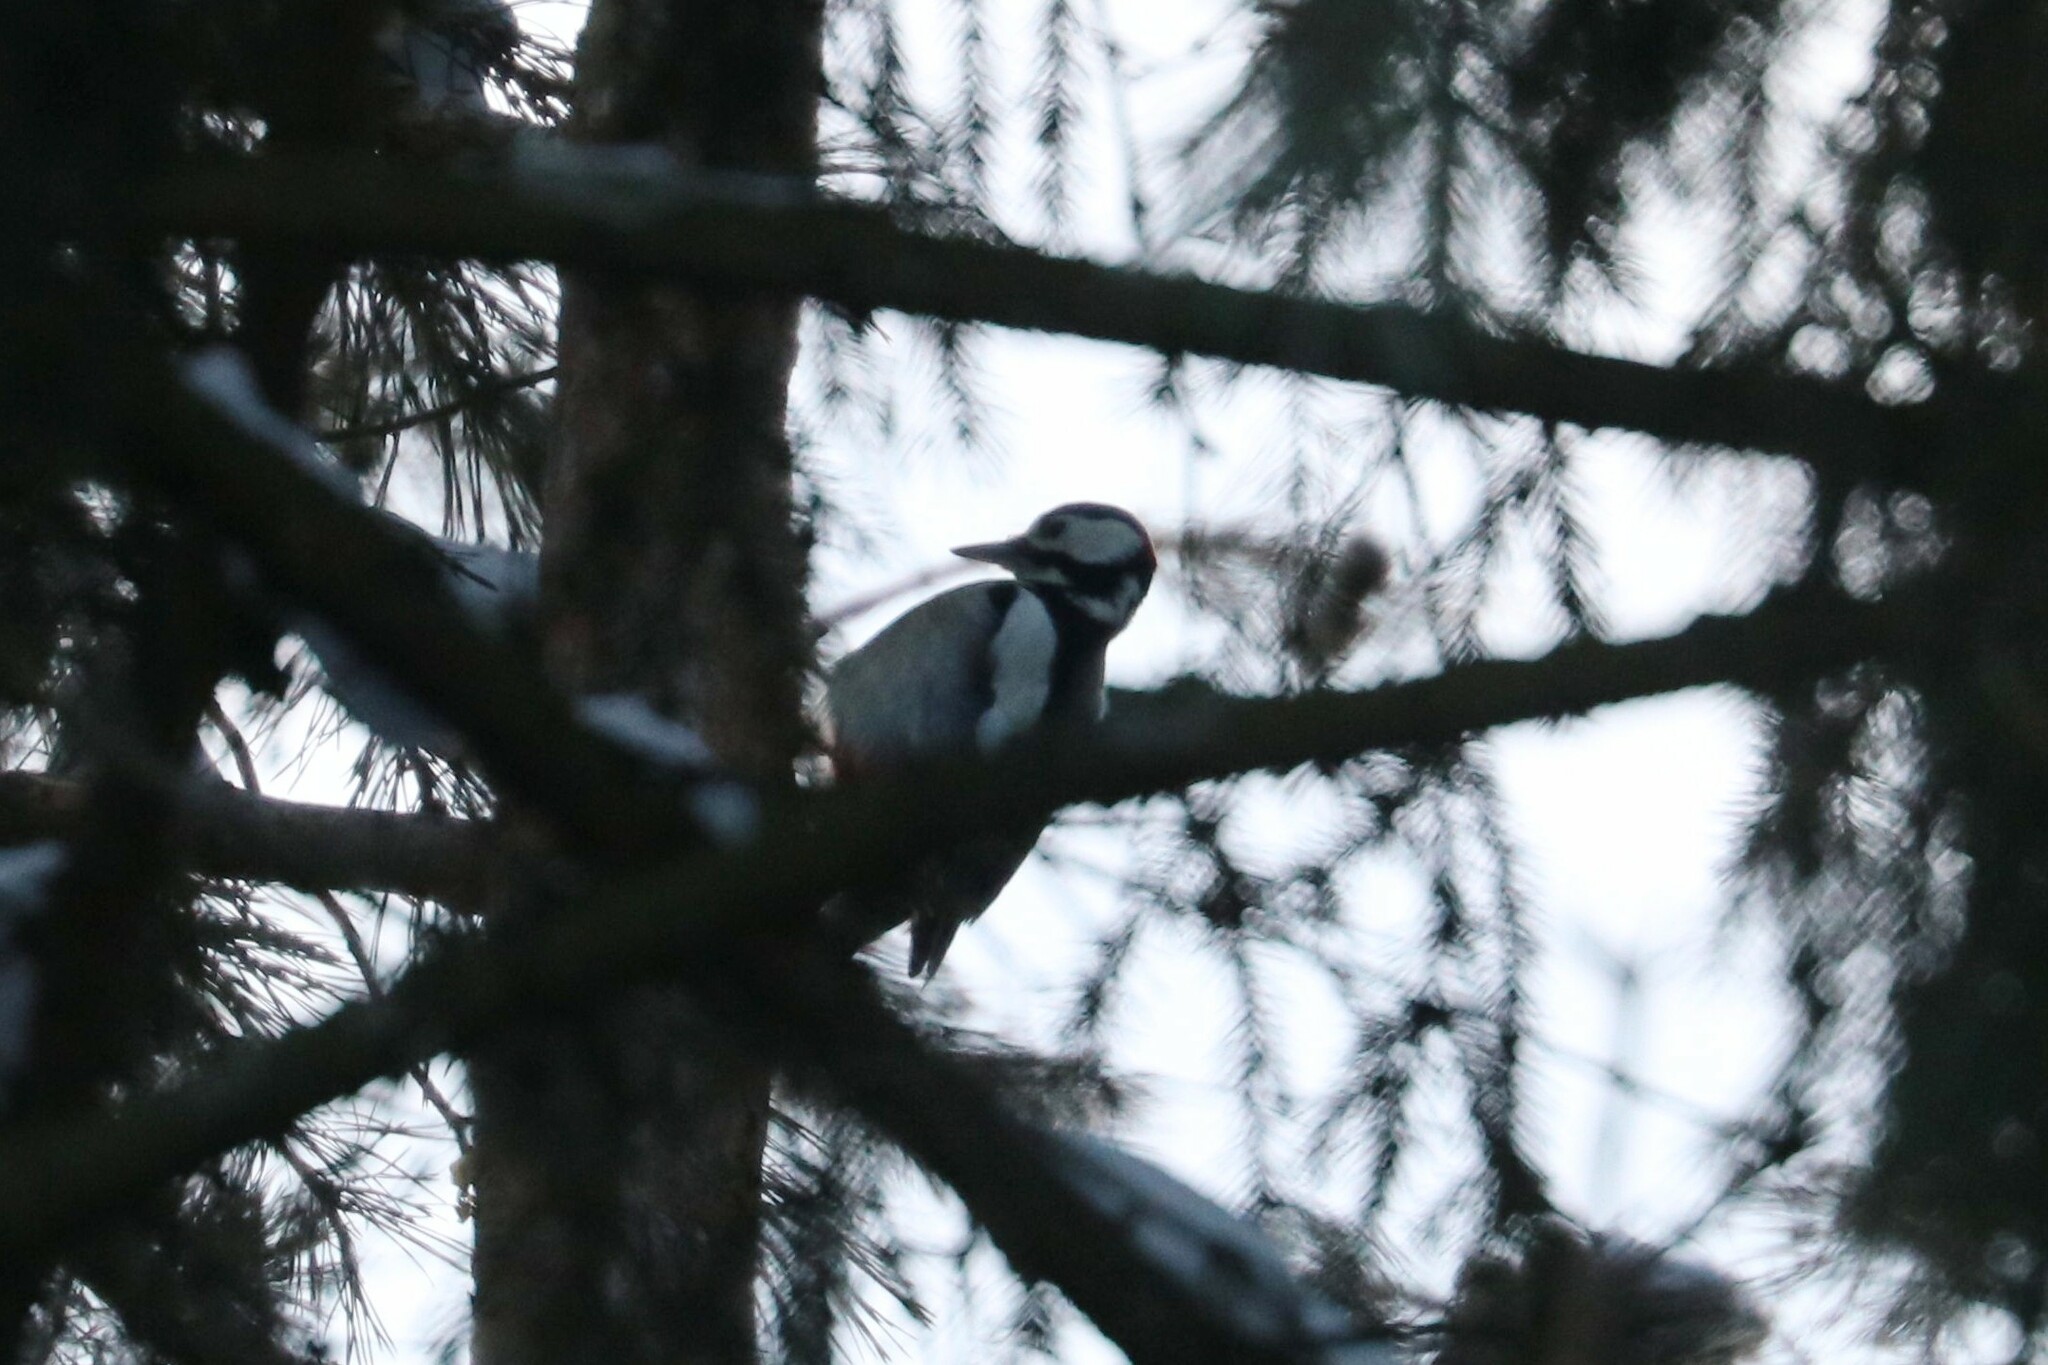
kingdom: Animalia
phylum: Chordata
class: Aves
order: Piciformes
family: Picidae
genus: Dendrocopos
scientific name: Dendrocopos major
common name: Great spotted woodpecker
